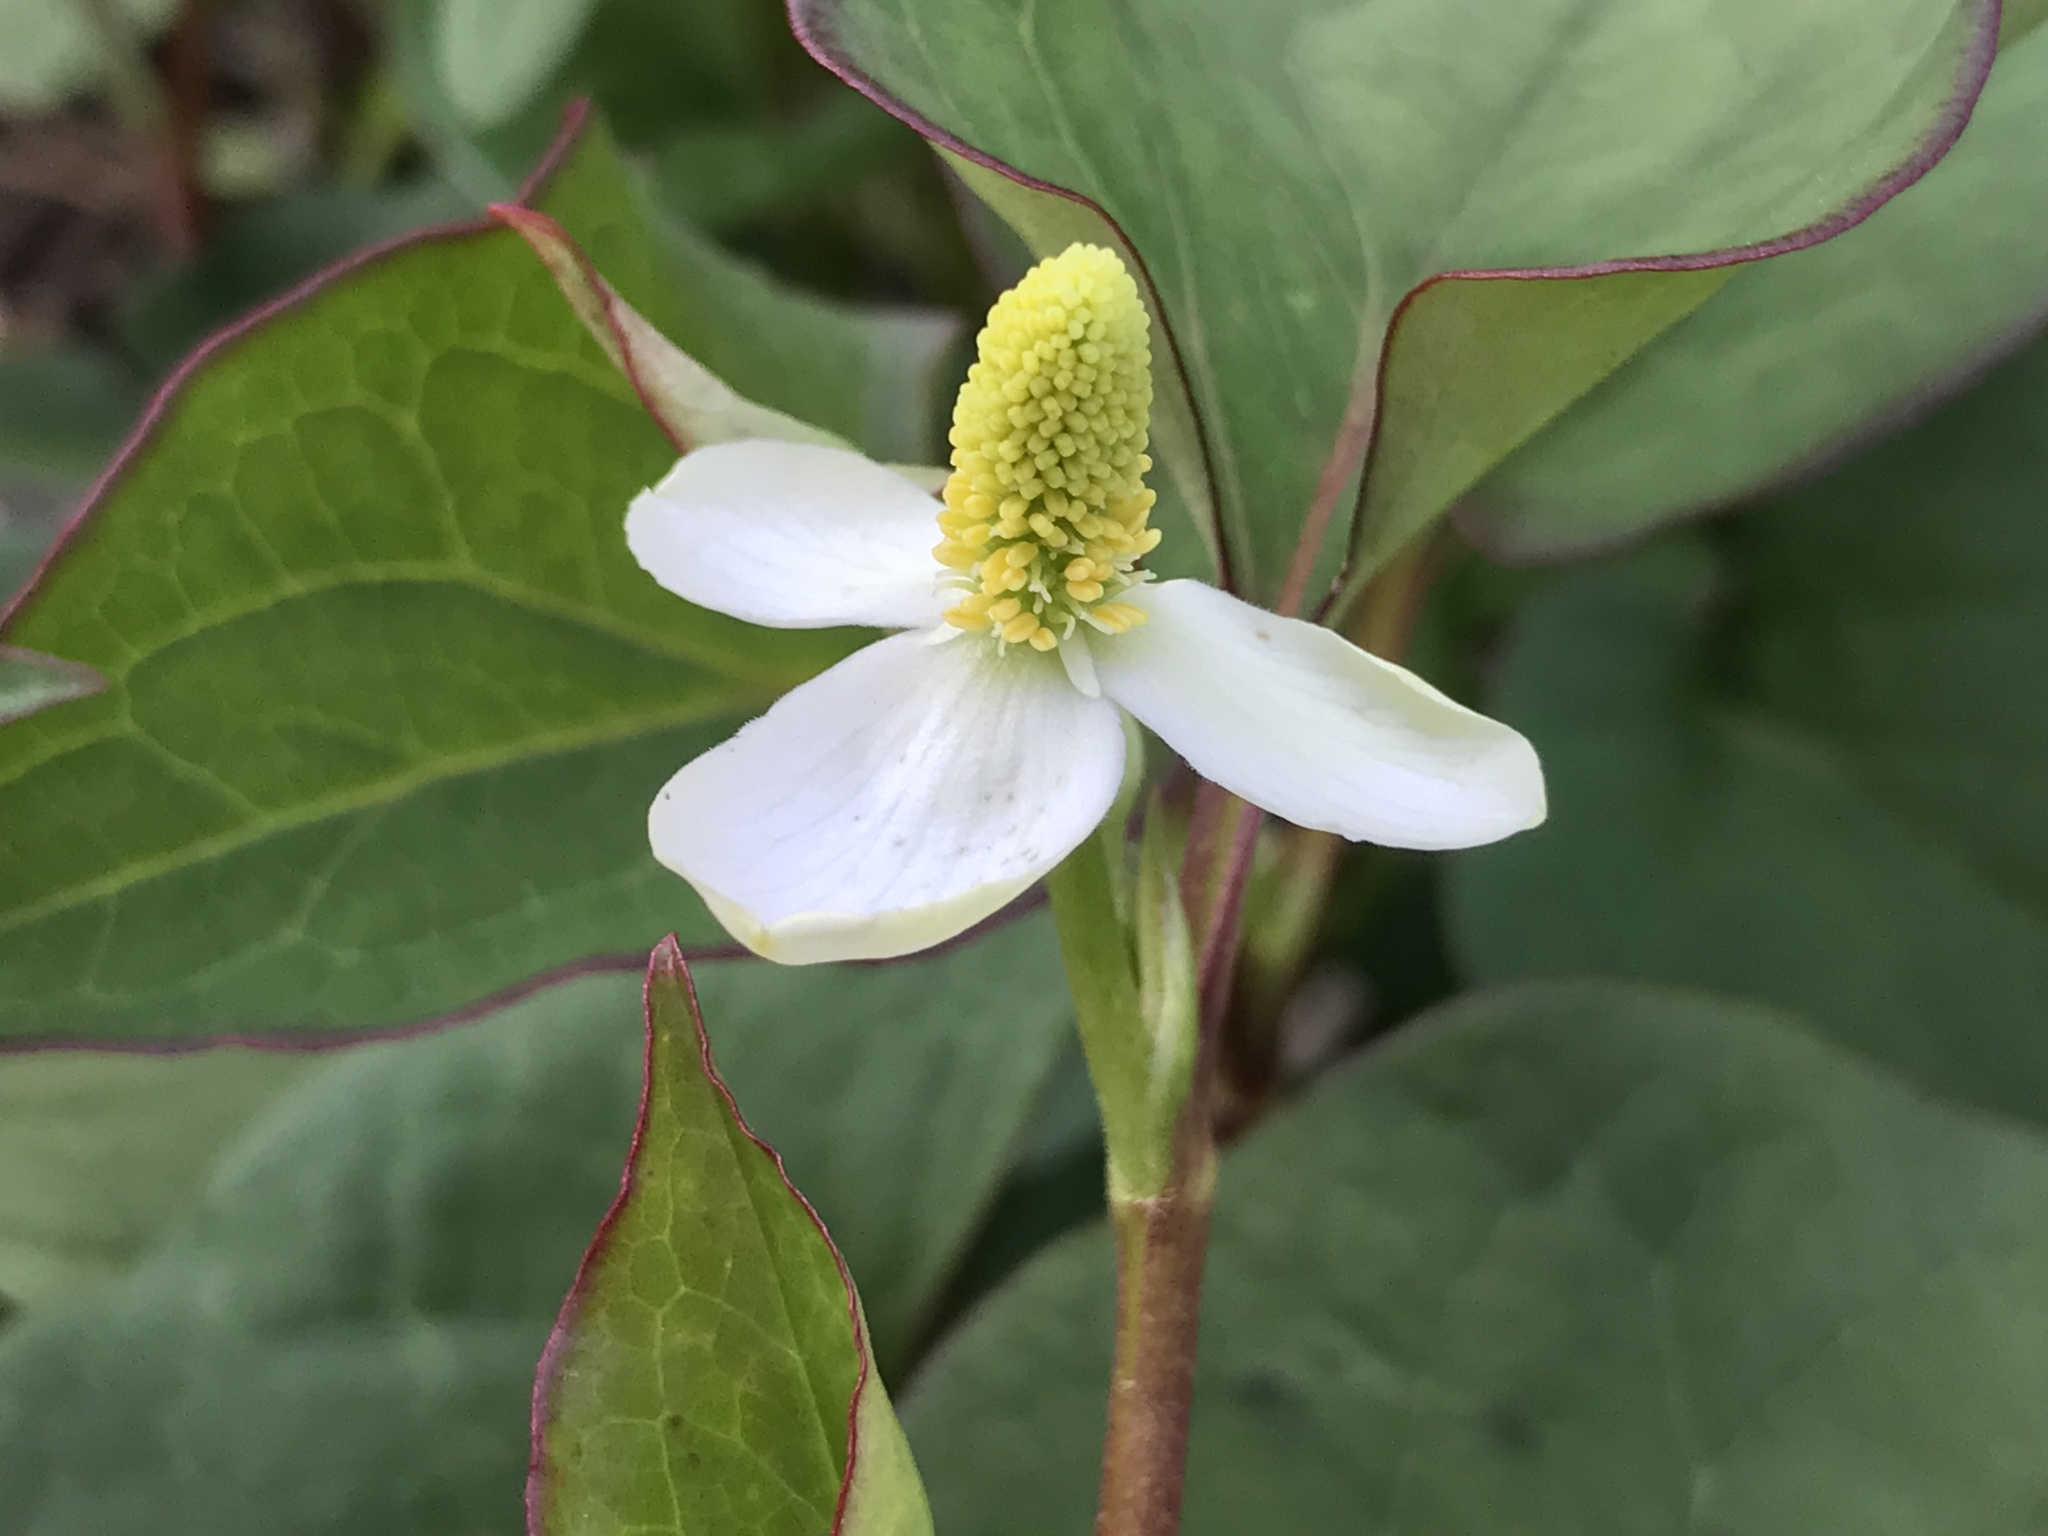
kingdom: Plantae
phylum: Tracheophyta
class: Magnoliopsida
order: Piperales
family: Saururaceae
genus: Houttuynia
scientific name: Houttuynia cordata
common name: Chameleon
